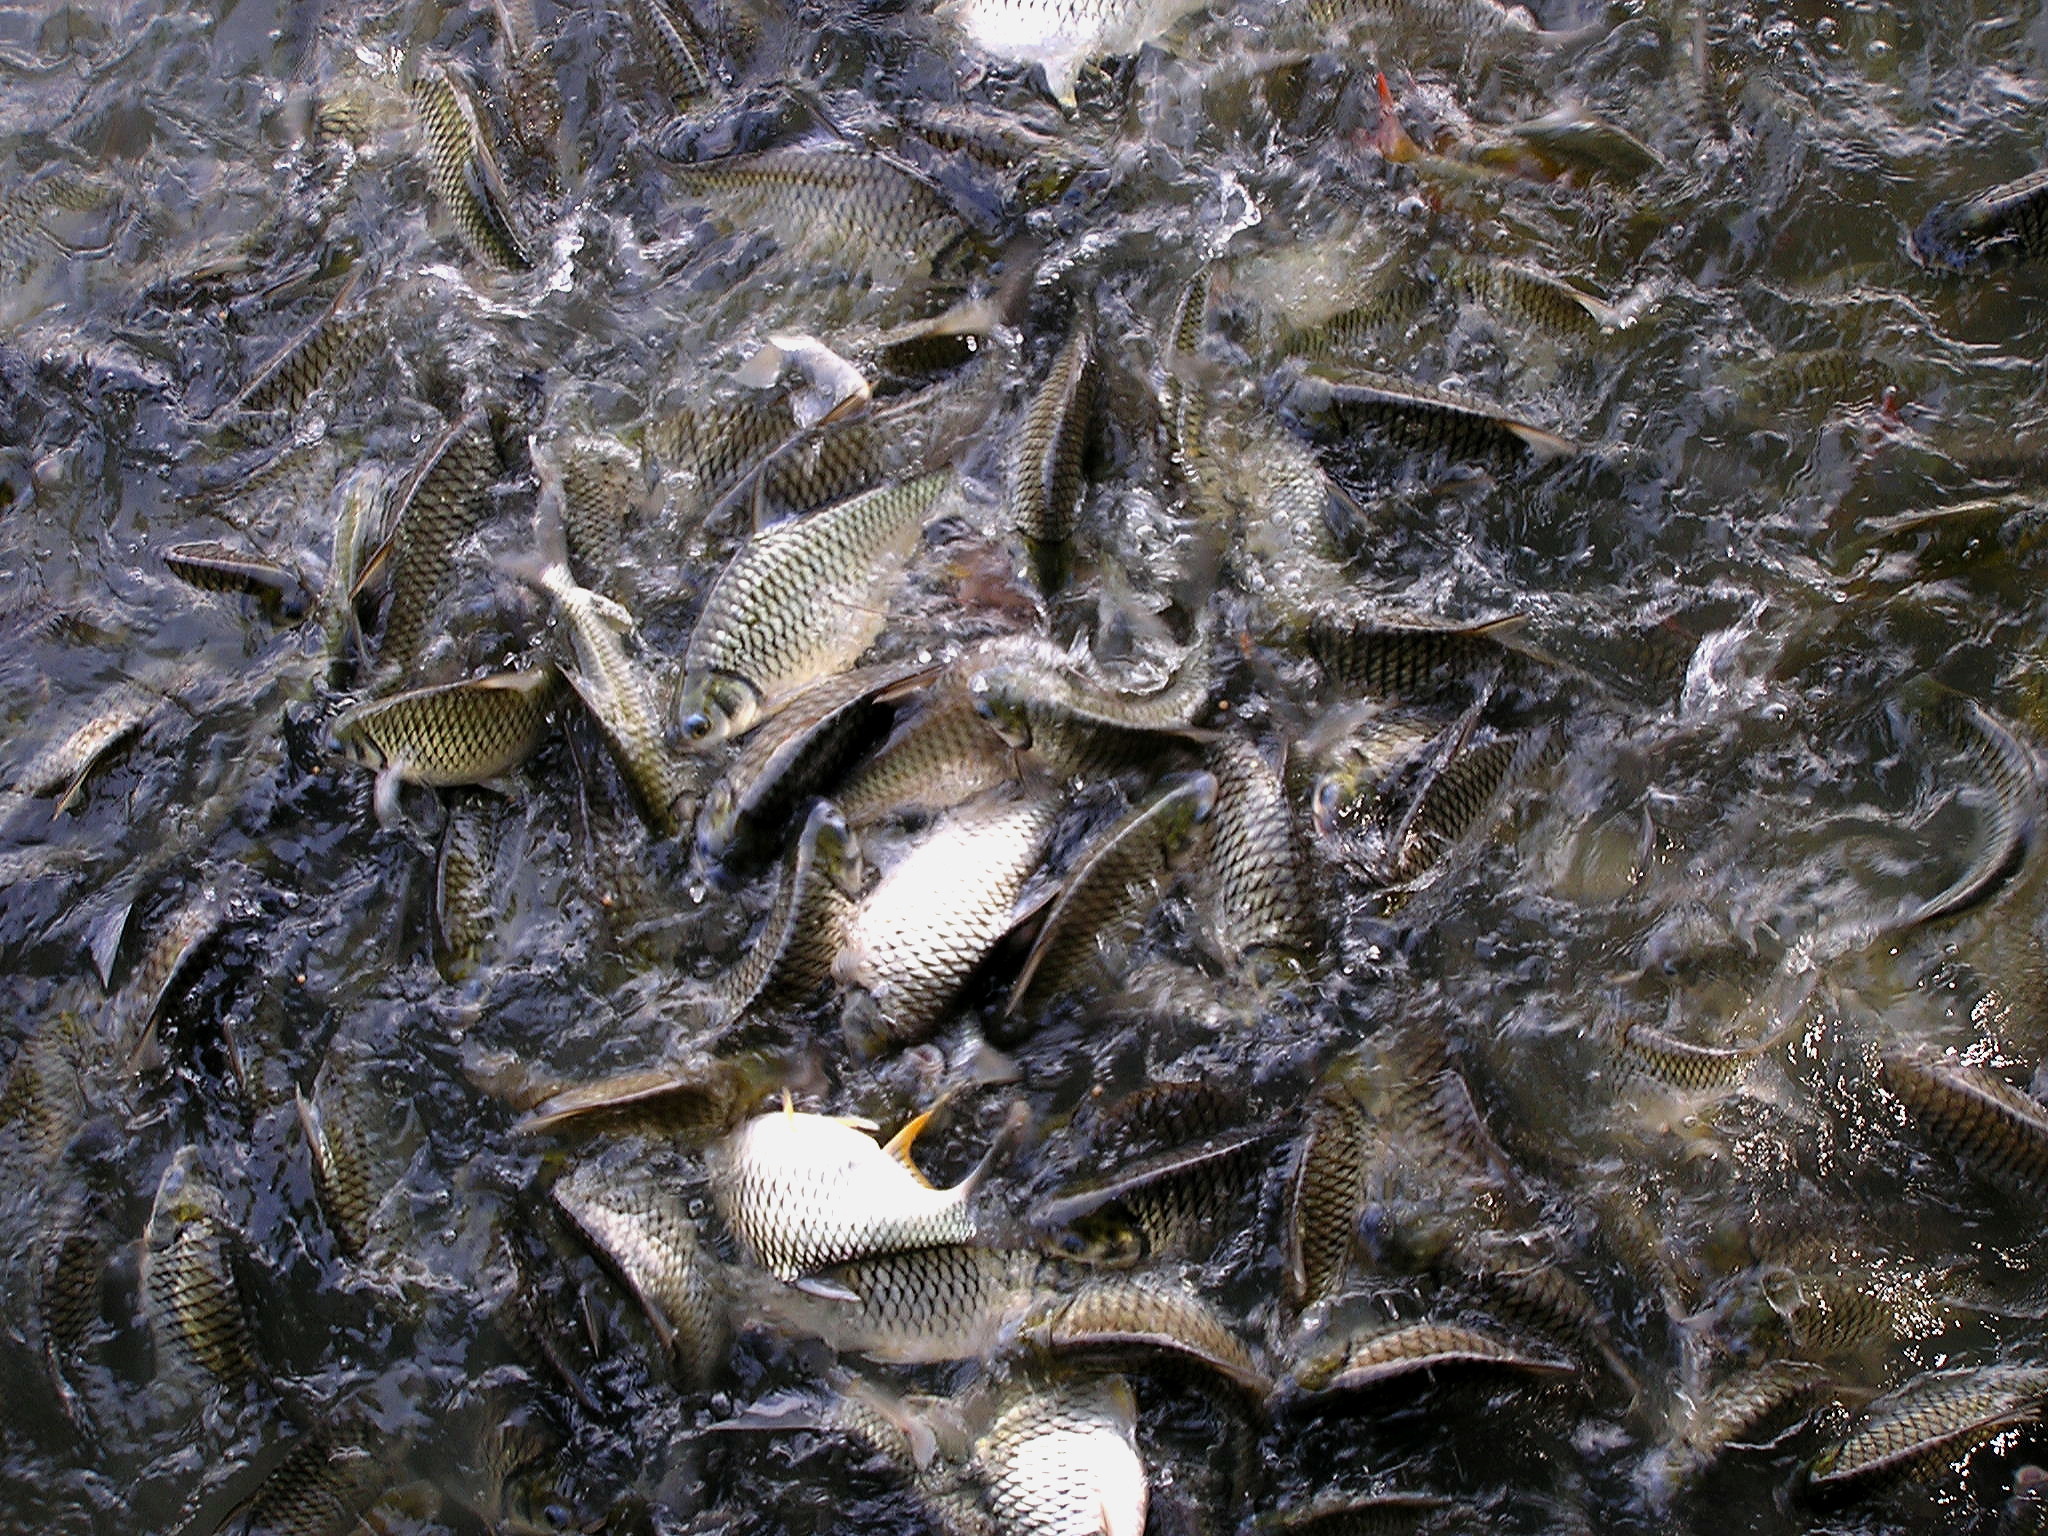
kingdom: Animalia
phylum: Chordata
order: Cypriniformes
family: Cyprinidae
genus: Barbonymus
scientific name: Barbonymus gonionotus
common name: Silver barb
